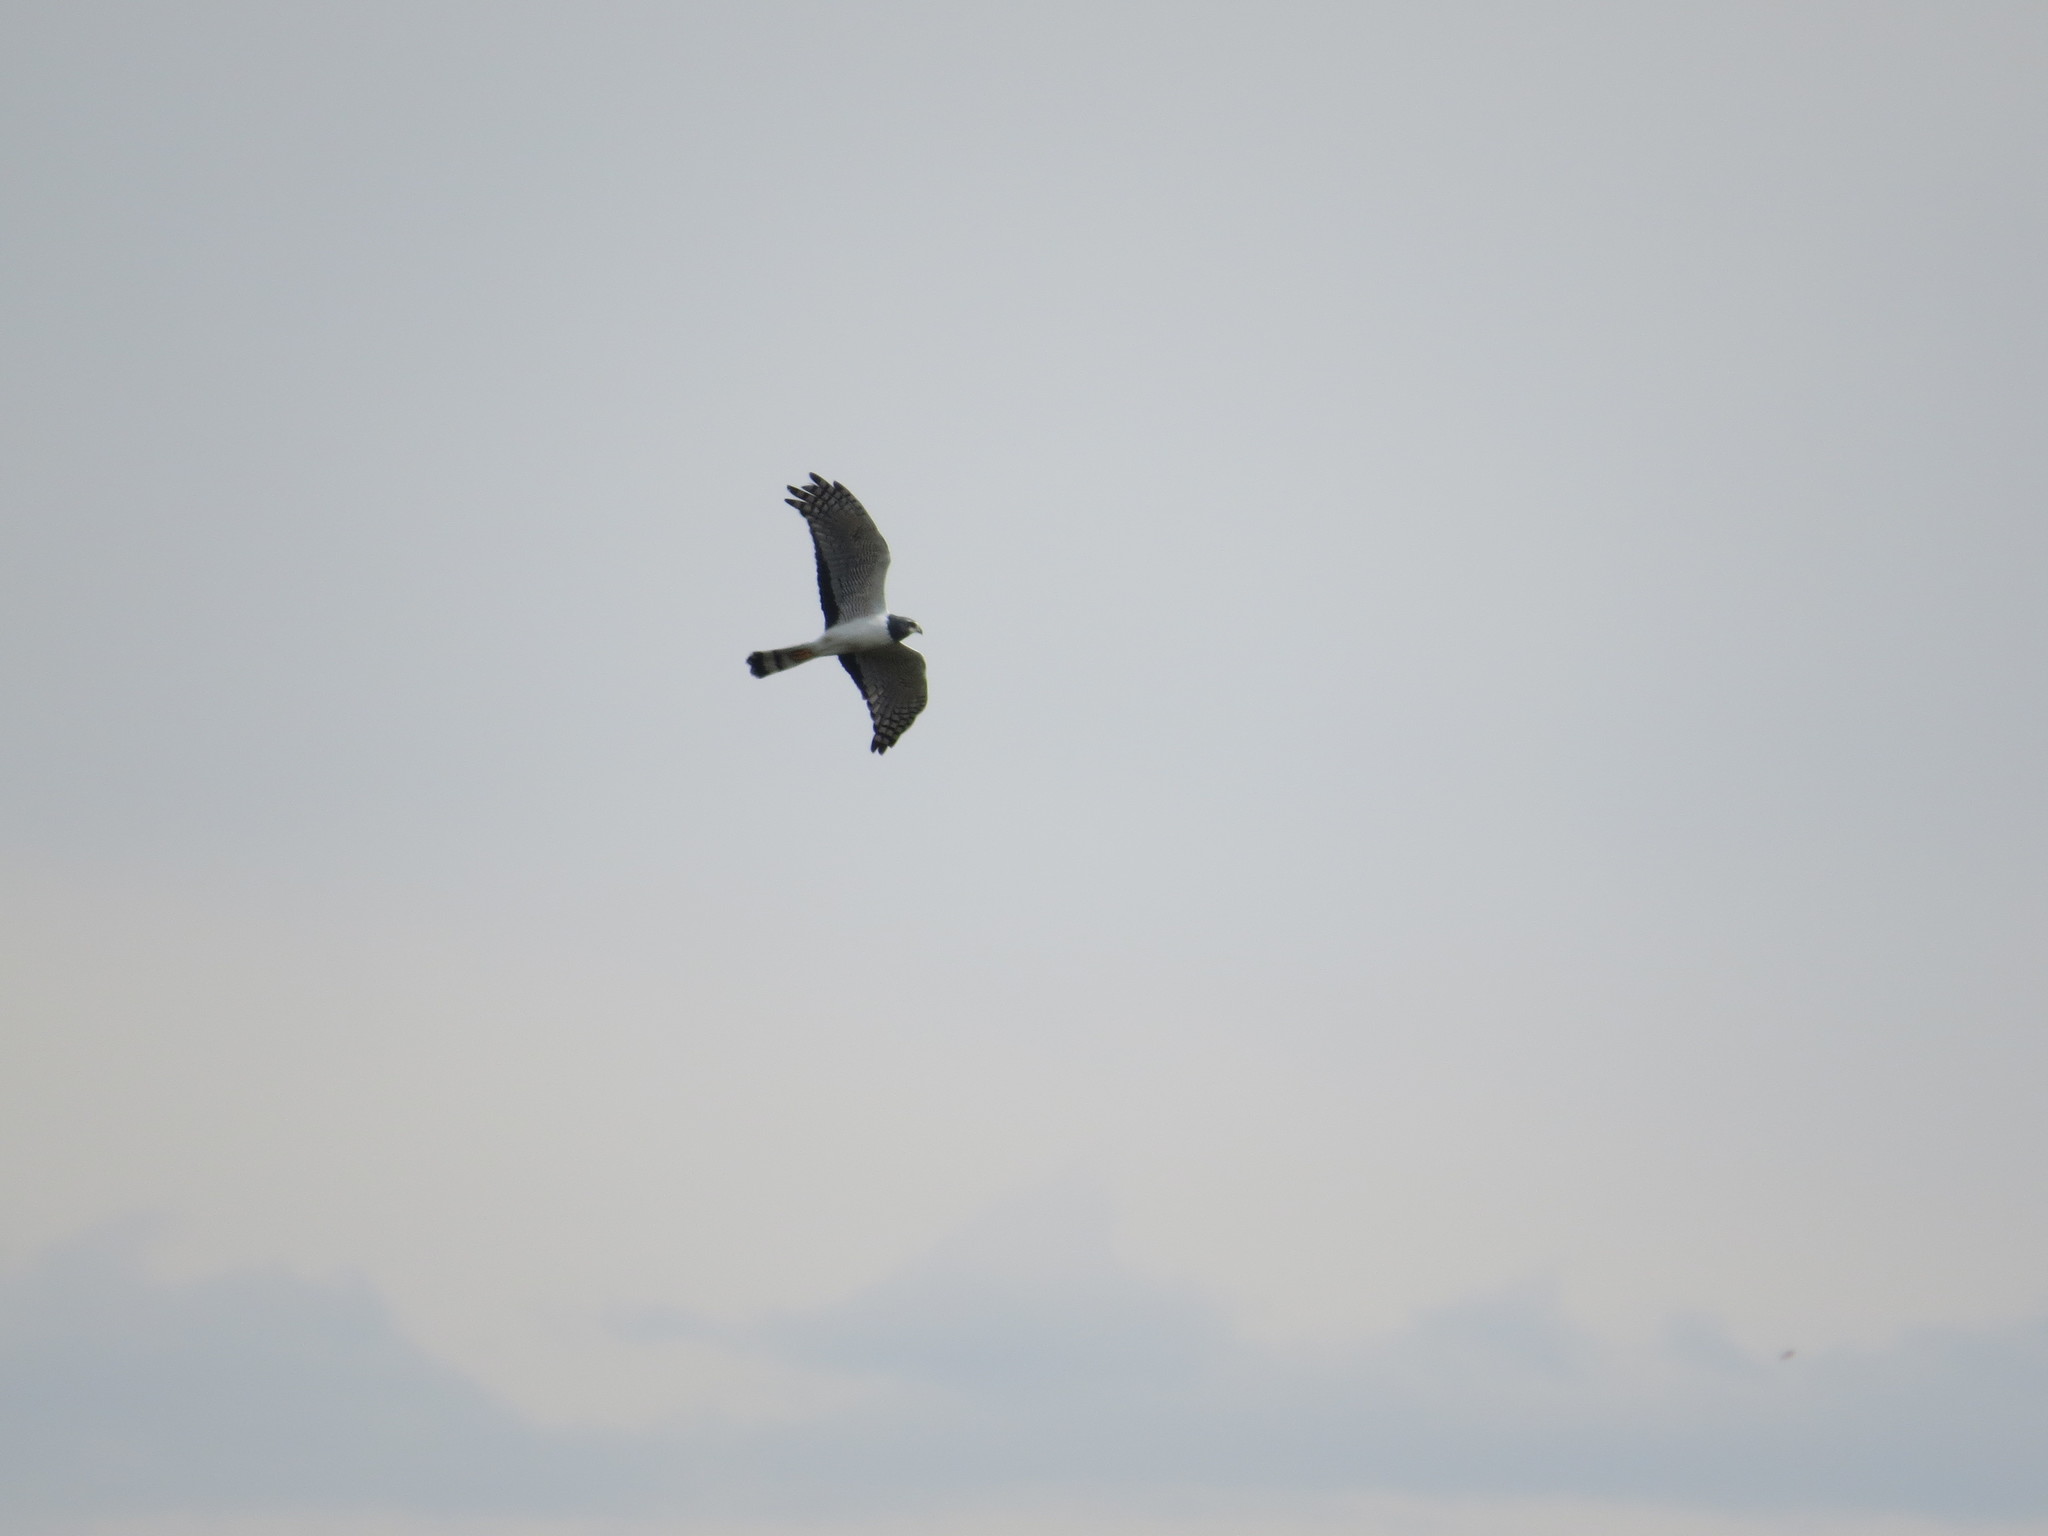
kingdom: Animalia
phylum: Chordata
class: Aves
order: Accipitriformes
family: Accipitridae
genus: Circus
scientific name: Circus buffoni
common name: Long-winged harrier
